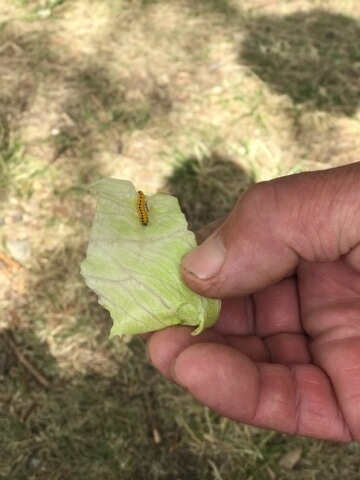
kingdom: Animalia
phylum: Arthropoda
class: Insecta
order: Hymenoptera
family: Tenthredinidae
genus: Cladius
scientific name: Cladius grandis
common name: Common sawfly
